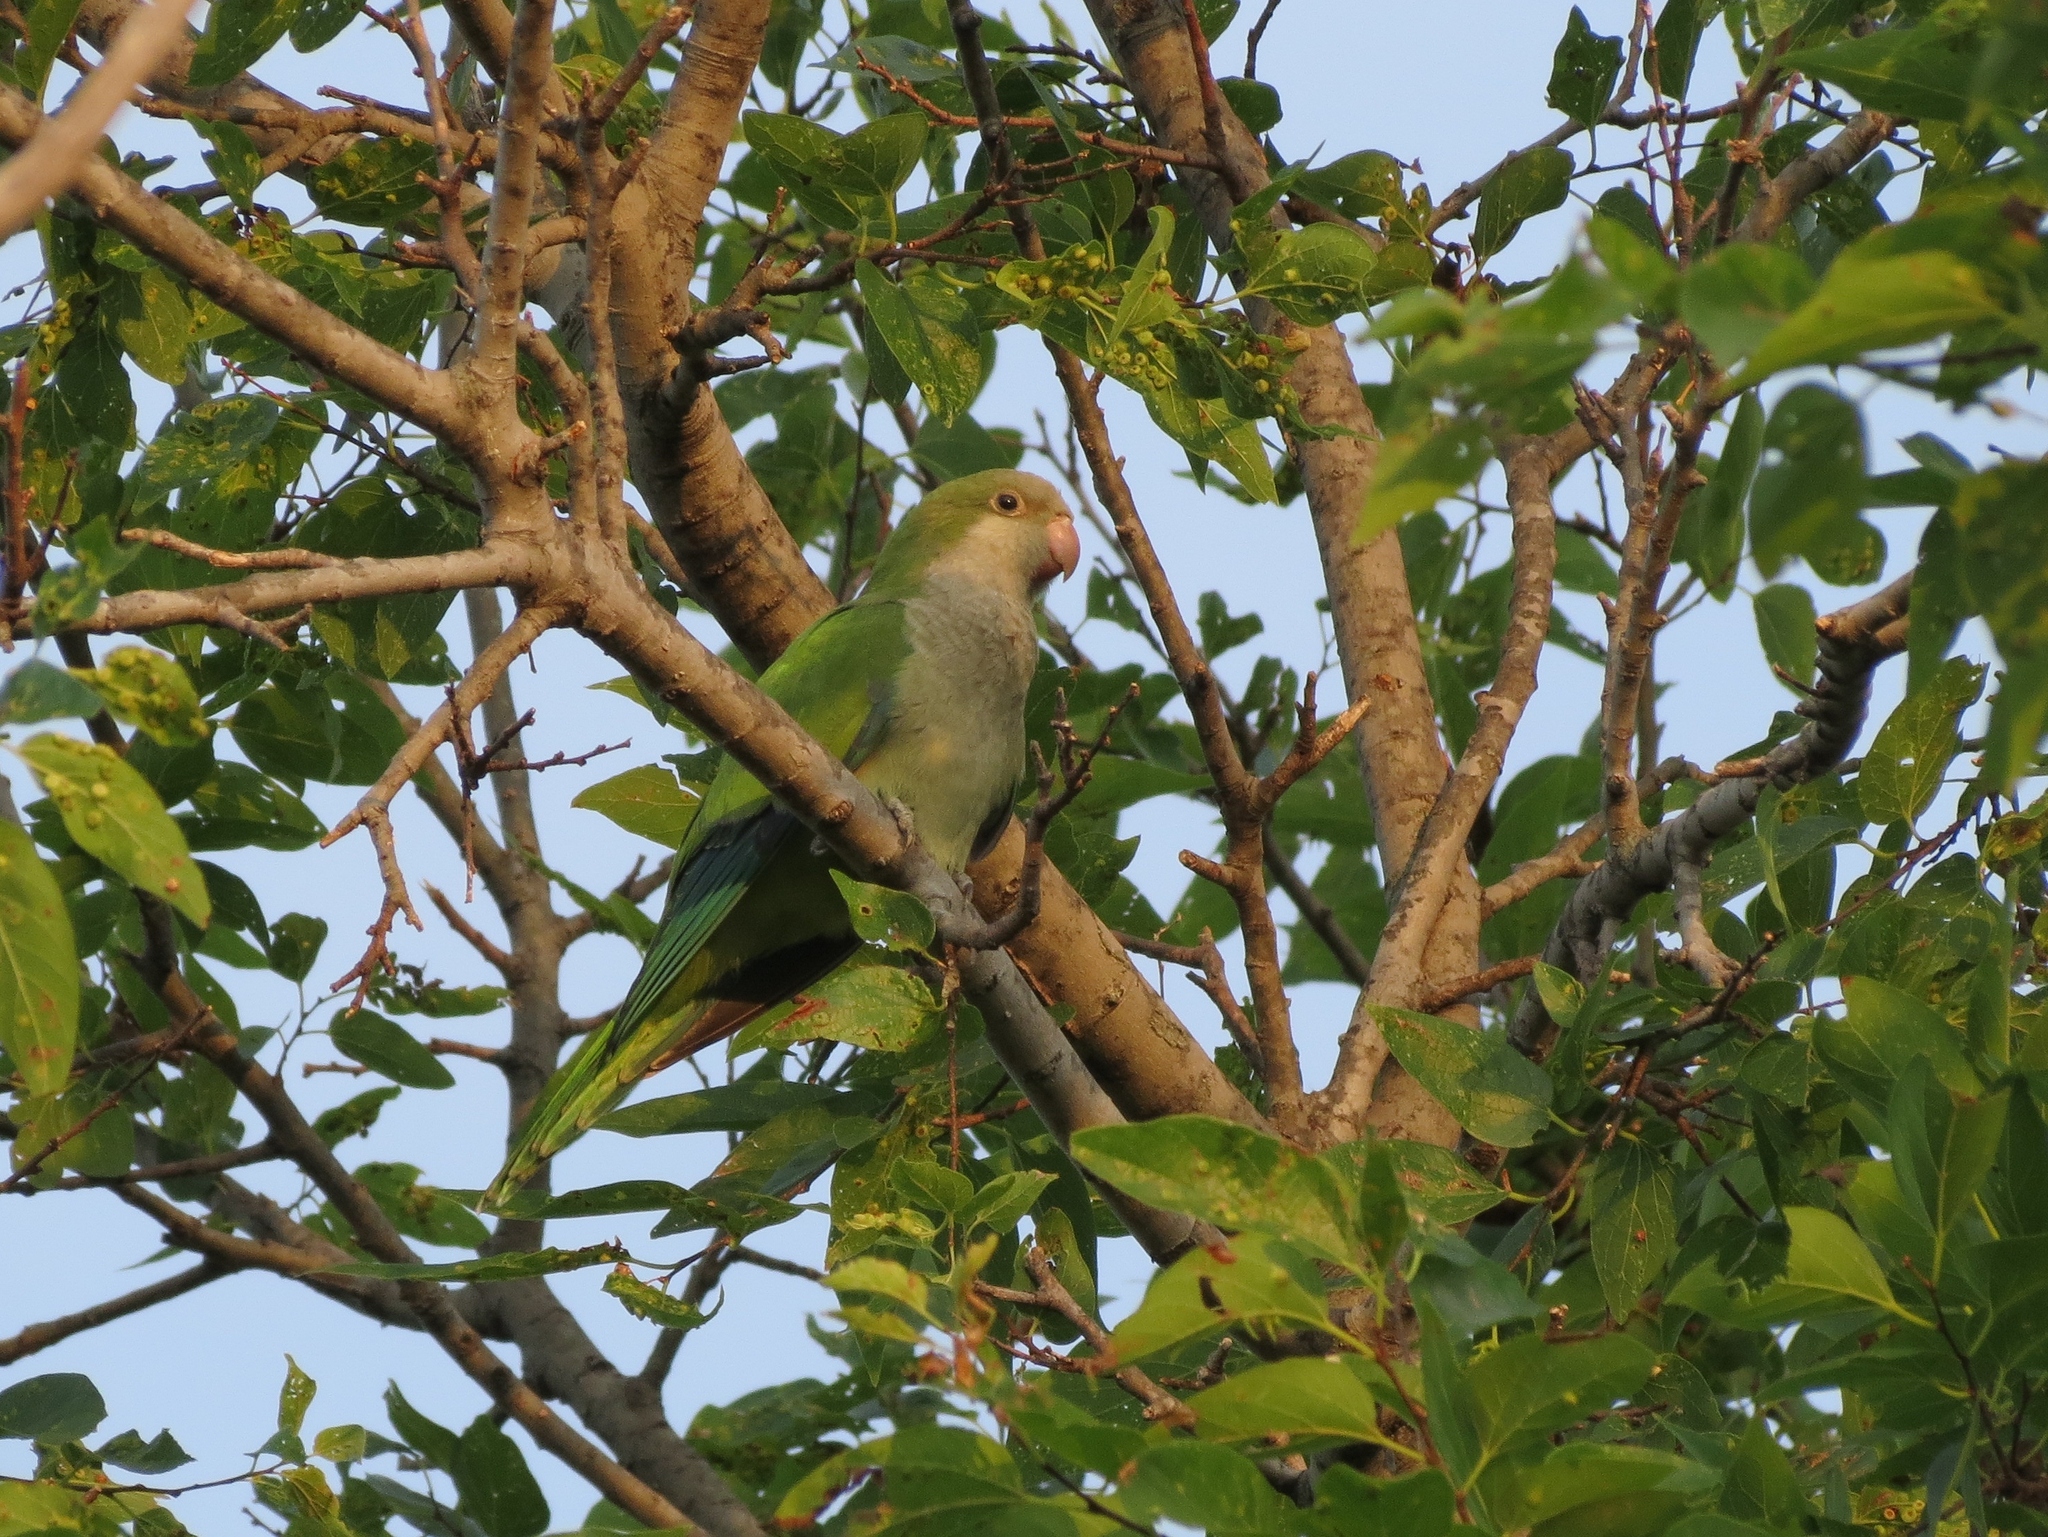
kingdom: Animalia
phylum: Chordata
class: Aves
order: Psittaciformes
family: Psittacidae
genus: Myiopsitta
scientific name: Myiopsitta monachus
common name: Monk parakeet
